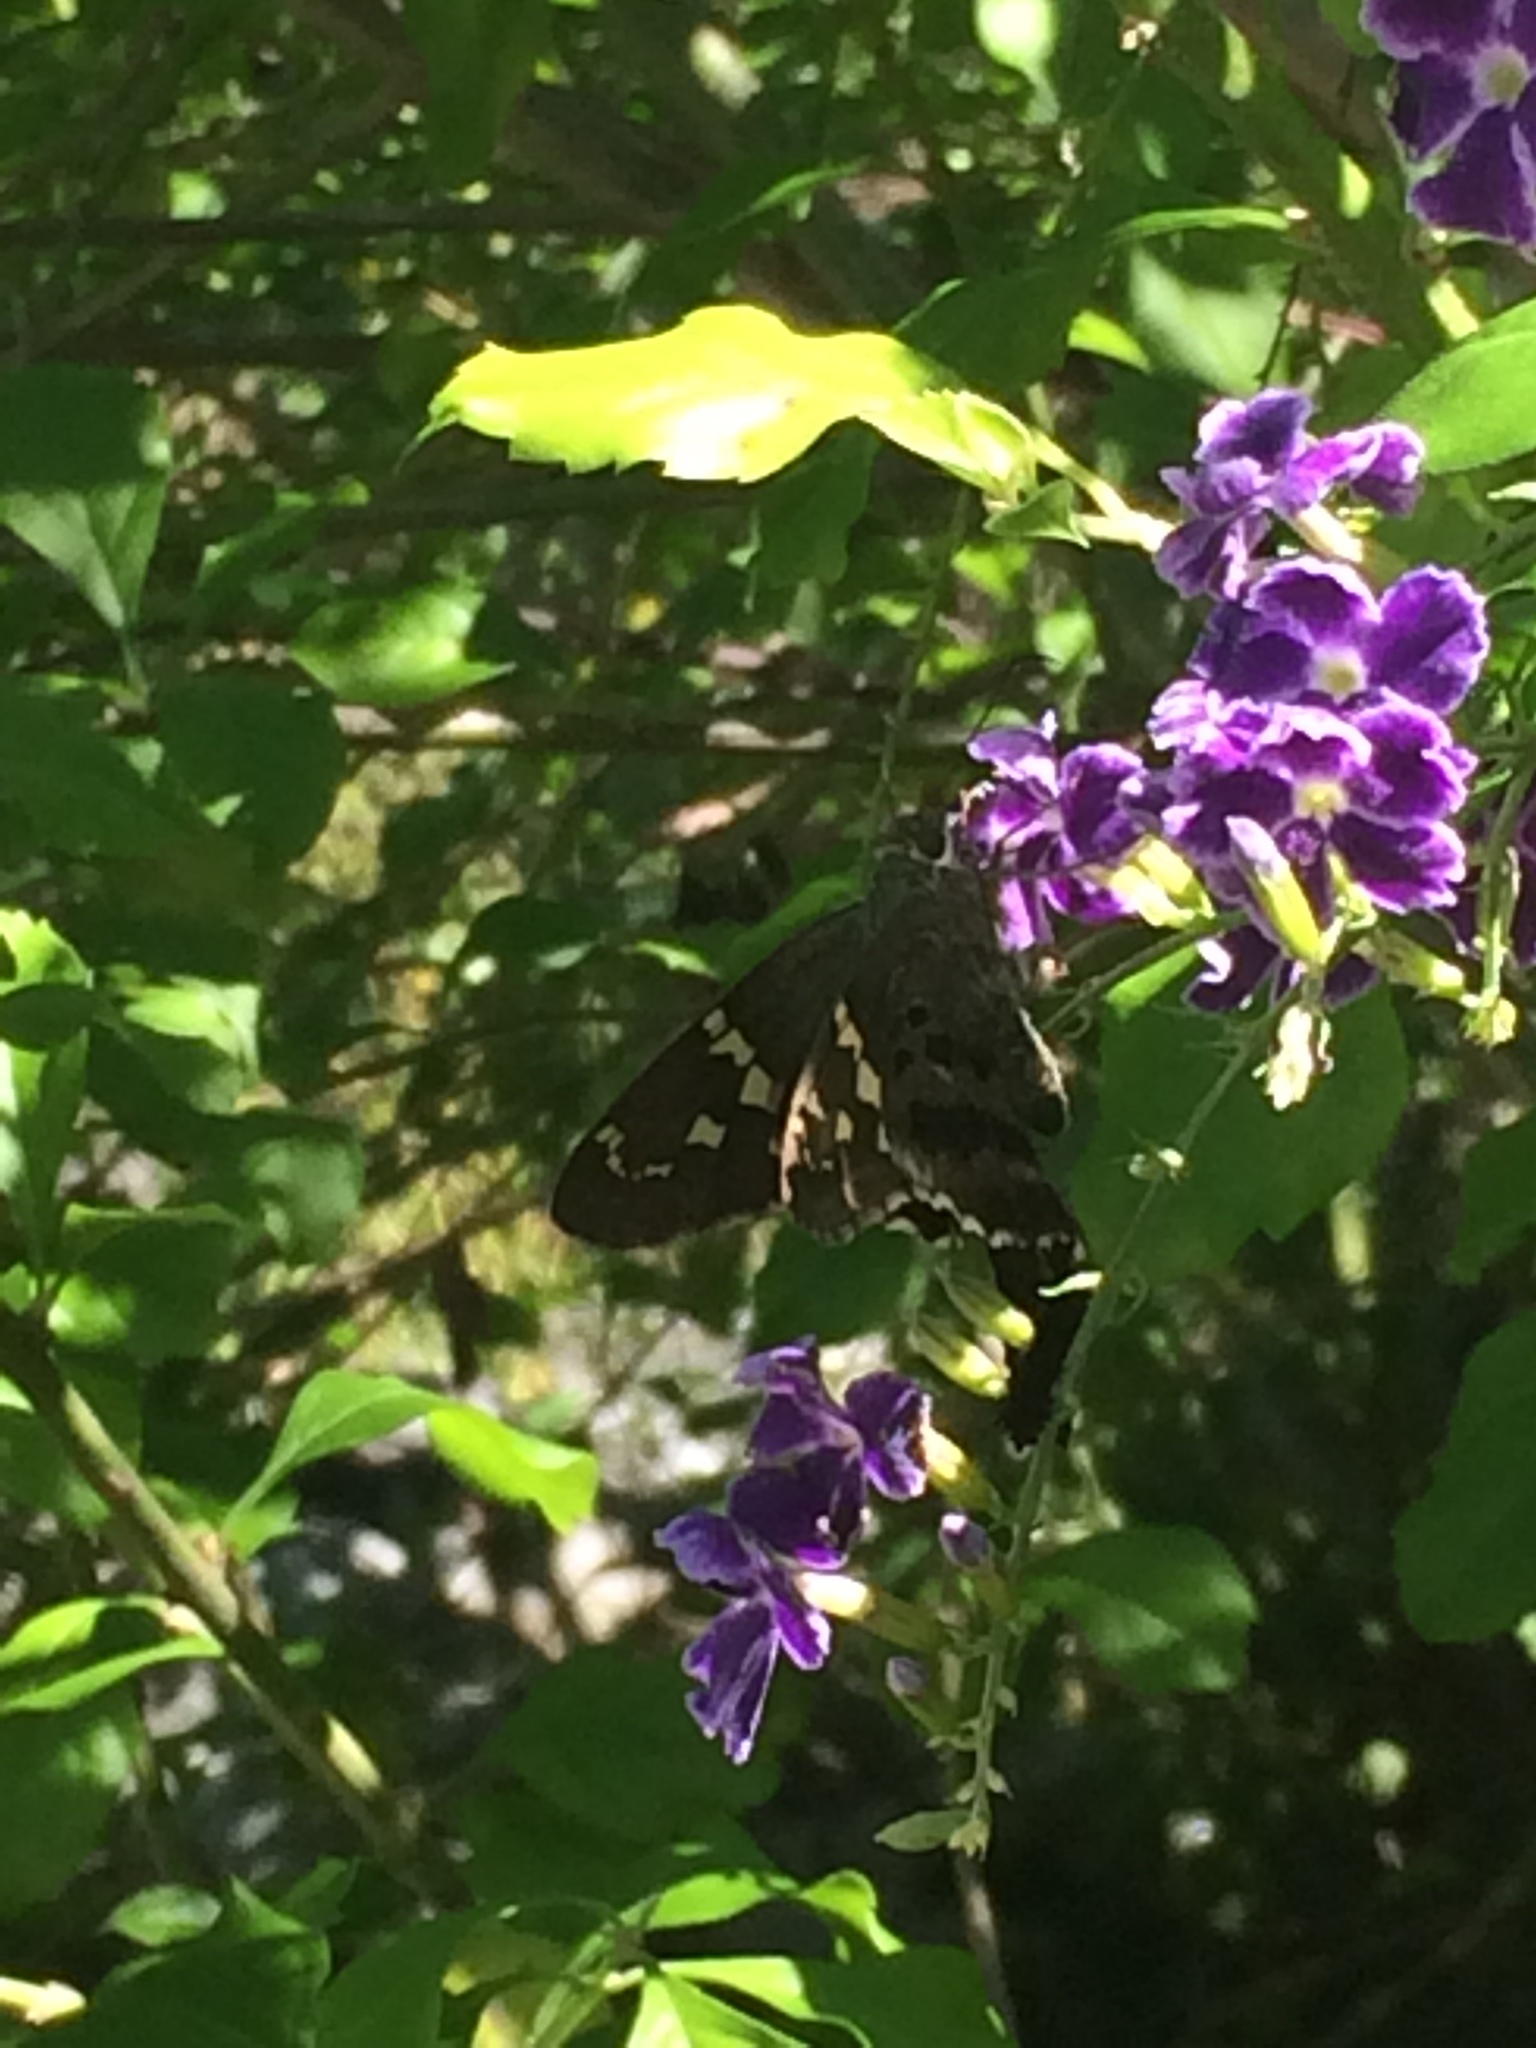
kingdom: Animalia
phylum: Arthropoda
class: Insecta
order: Lepidoptera
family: Hesperiidae
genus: Urbanus
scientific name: Urbanus proteus
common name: Long-tailed skipper
